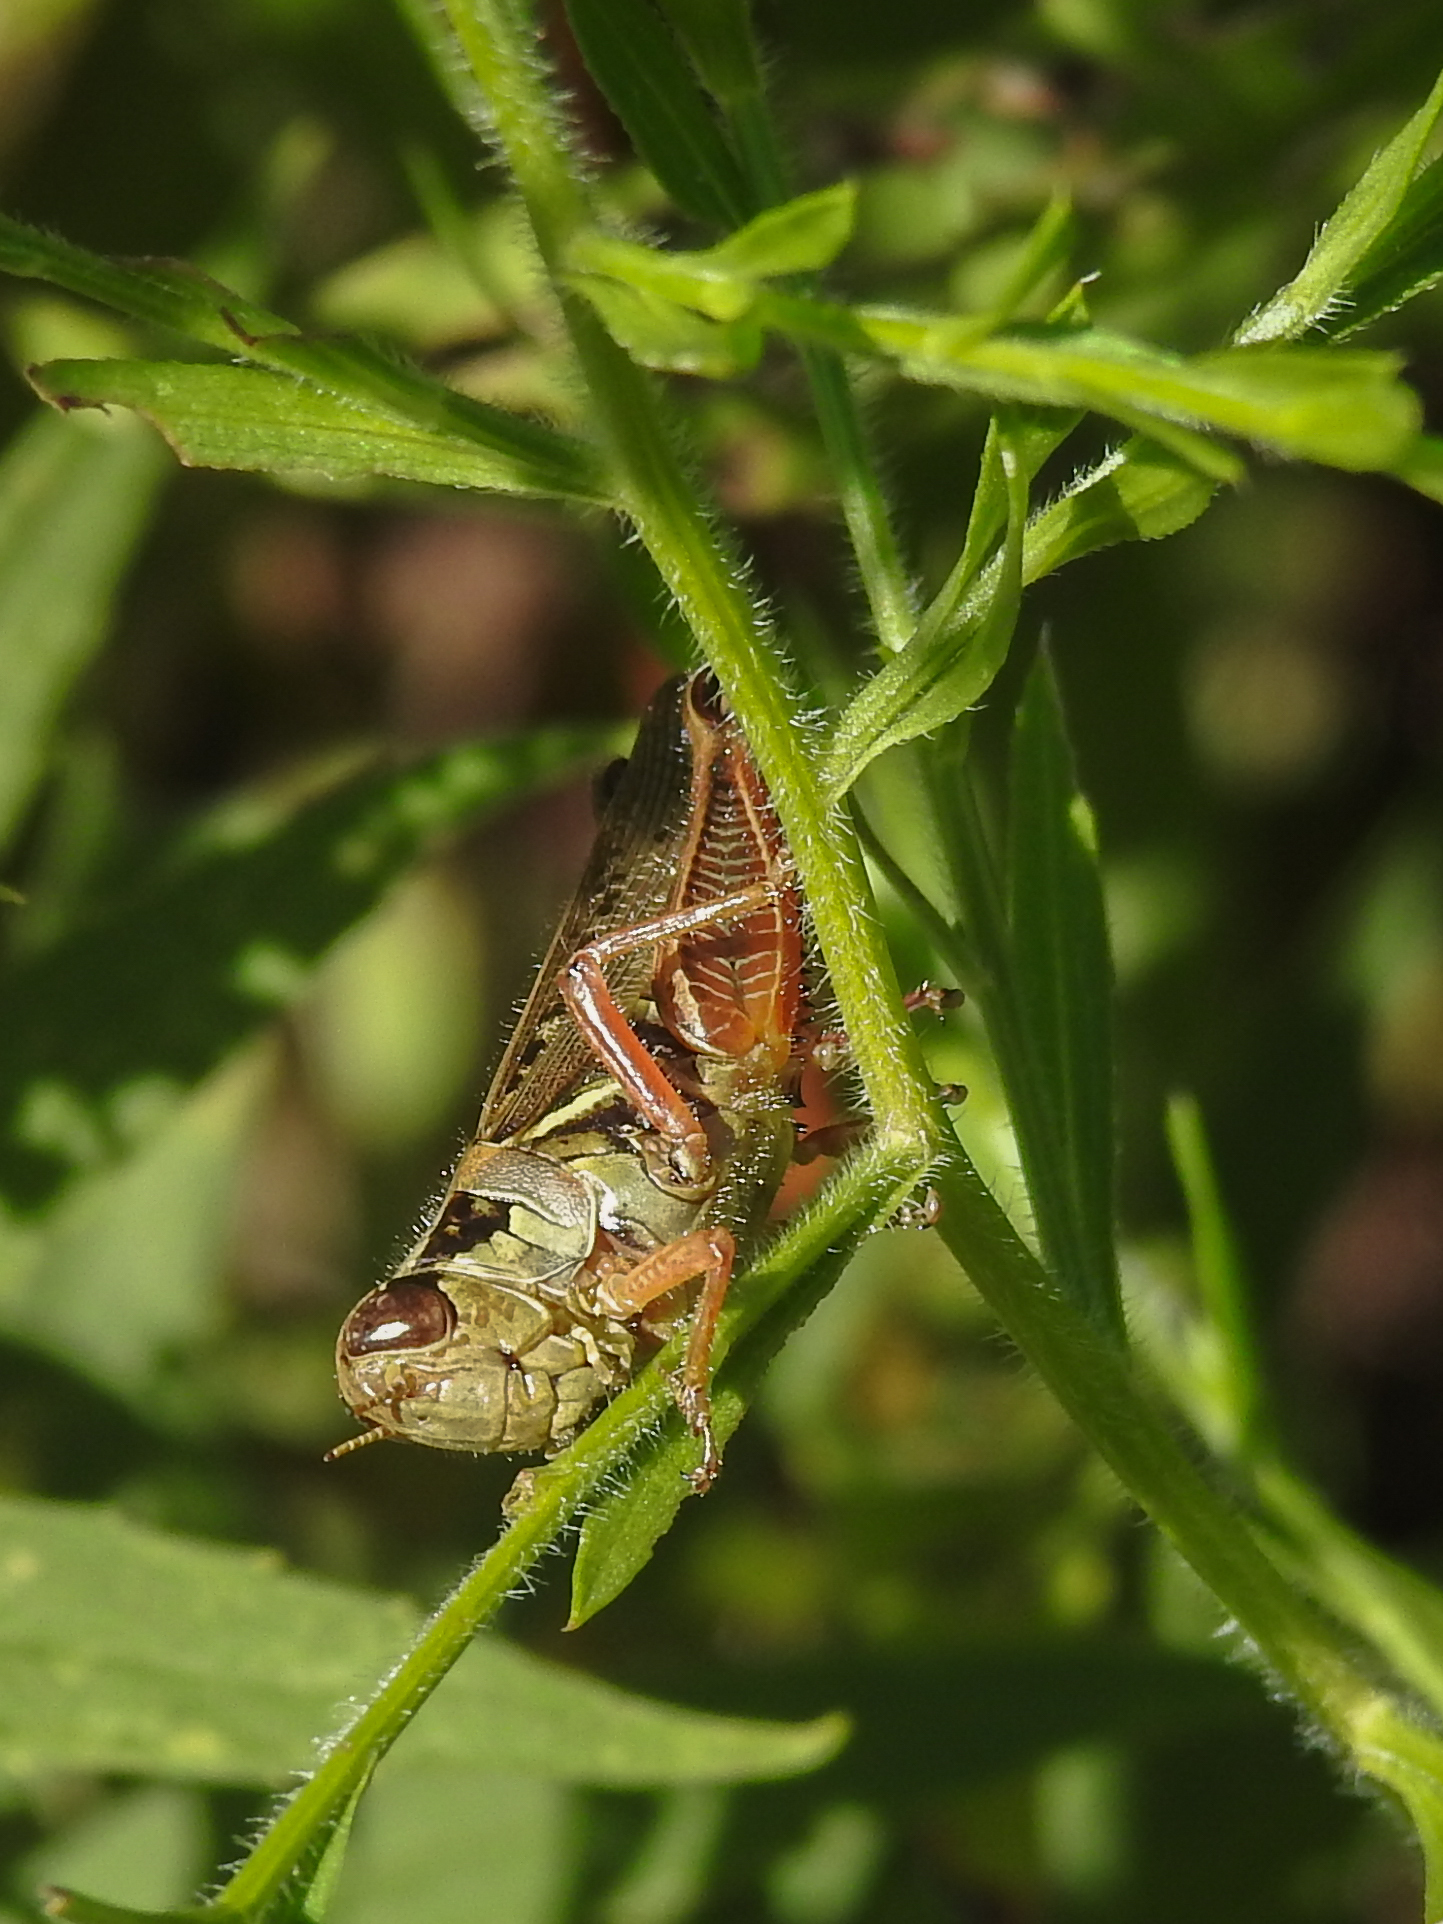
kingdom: Animalia
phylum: Arthropoda
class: Insecta
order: Orthoptera
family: Acrididae
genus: Melanoplus
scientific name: Melanoplus femurrubrum
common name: Red-legged grasshopper
